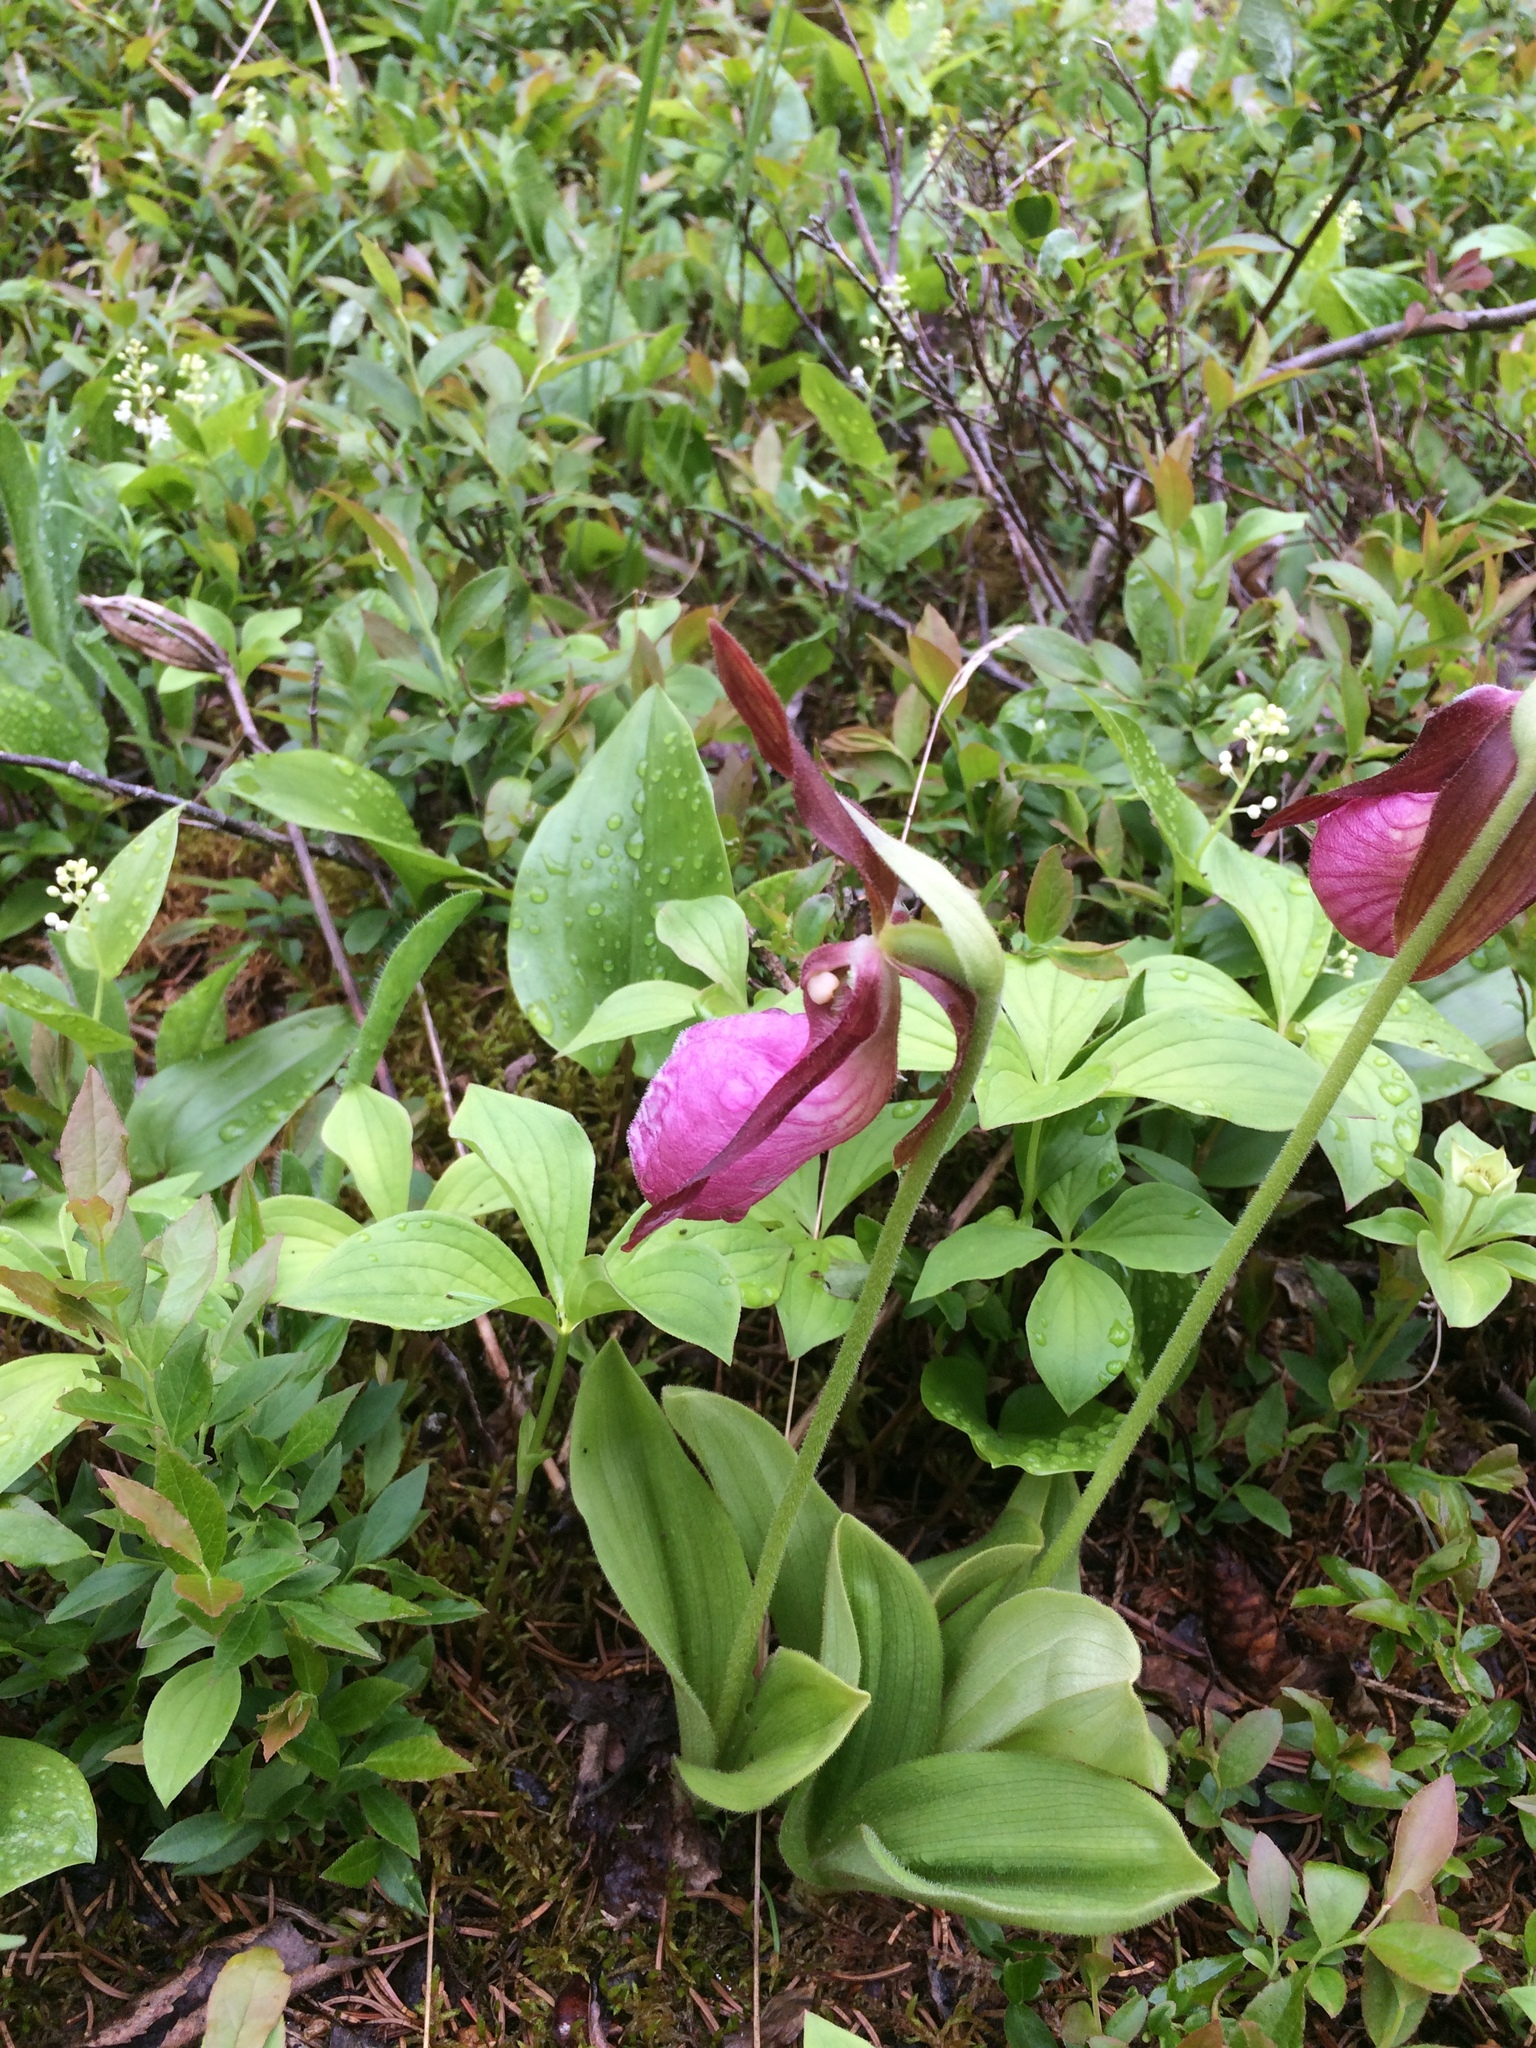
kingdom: Plantae
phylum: Tracheophyta
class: Liliopsida
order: Asparagales
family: Orchidaceae
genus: Cypripedium
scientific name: Cypripedium acaule
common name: Pink lady's-slipper
